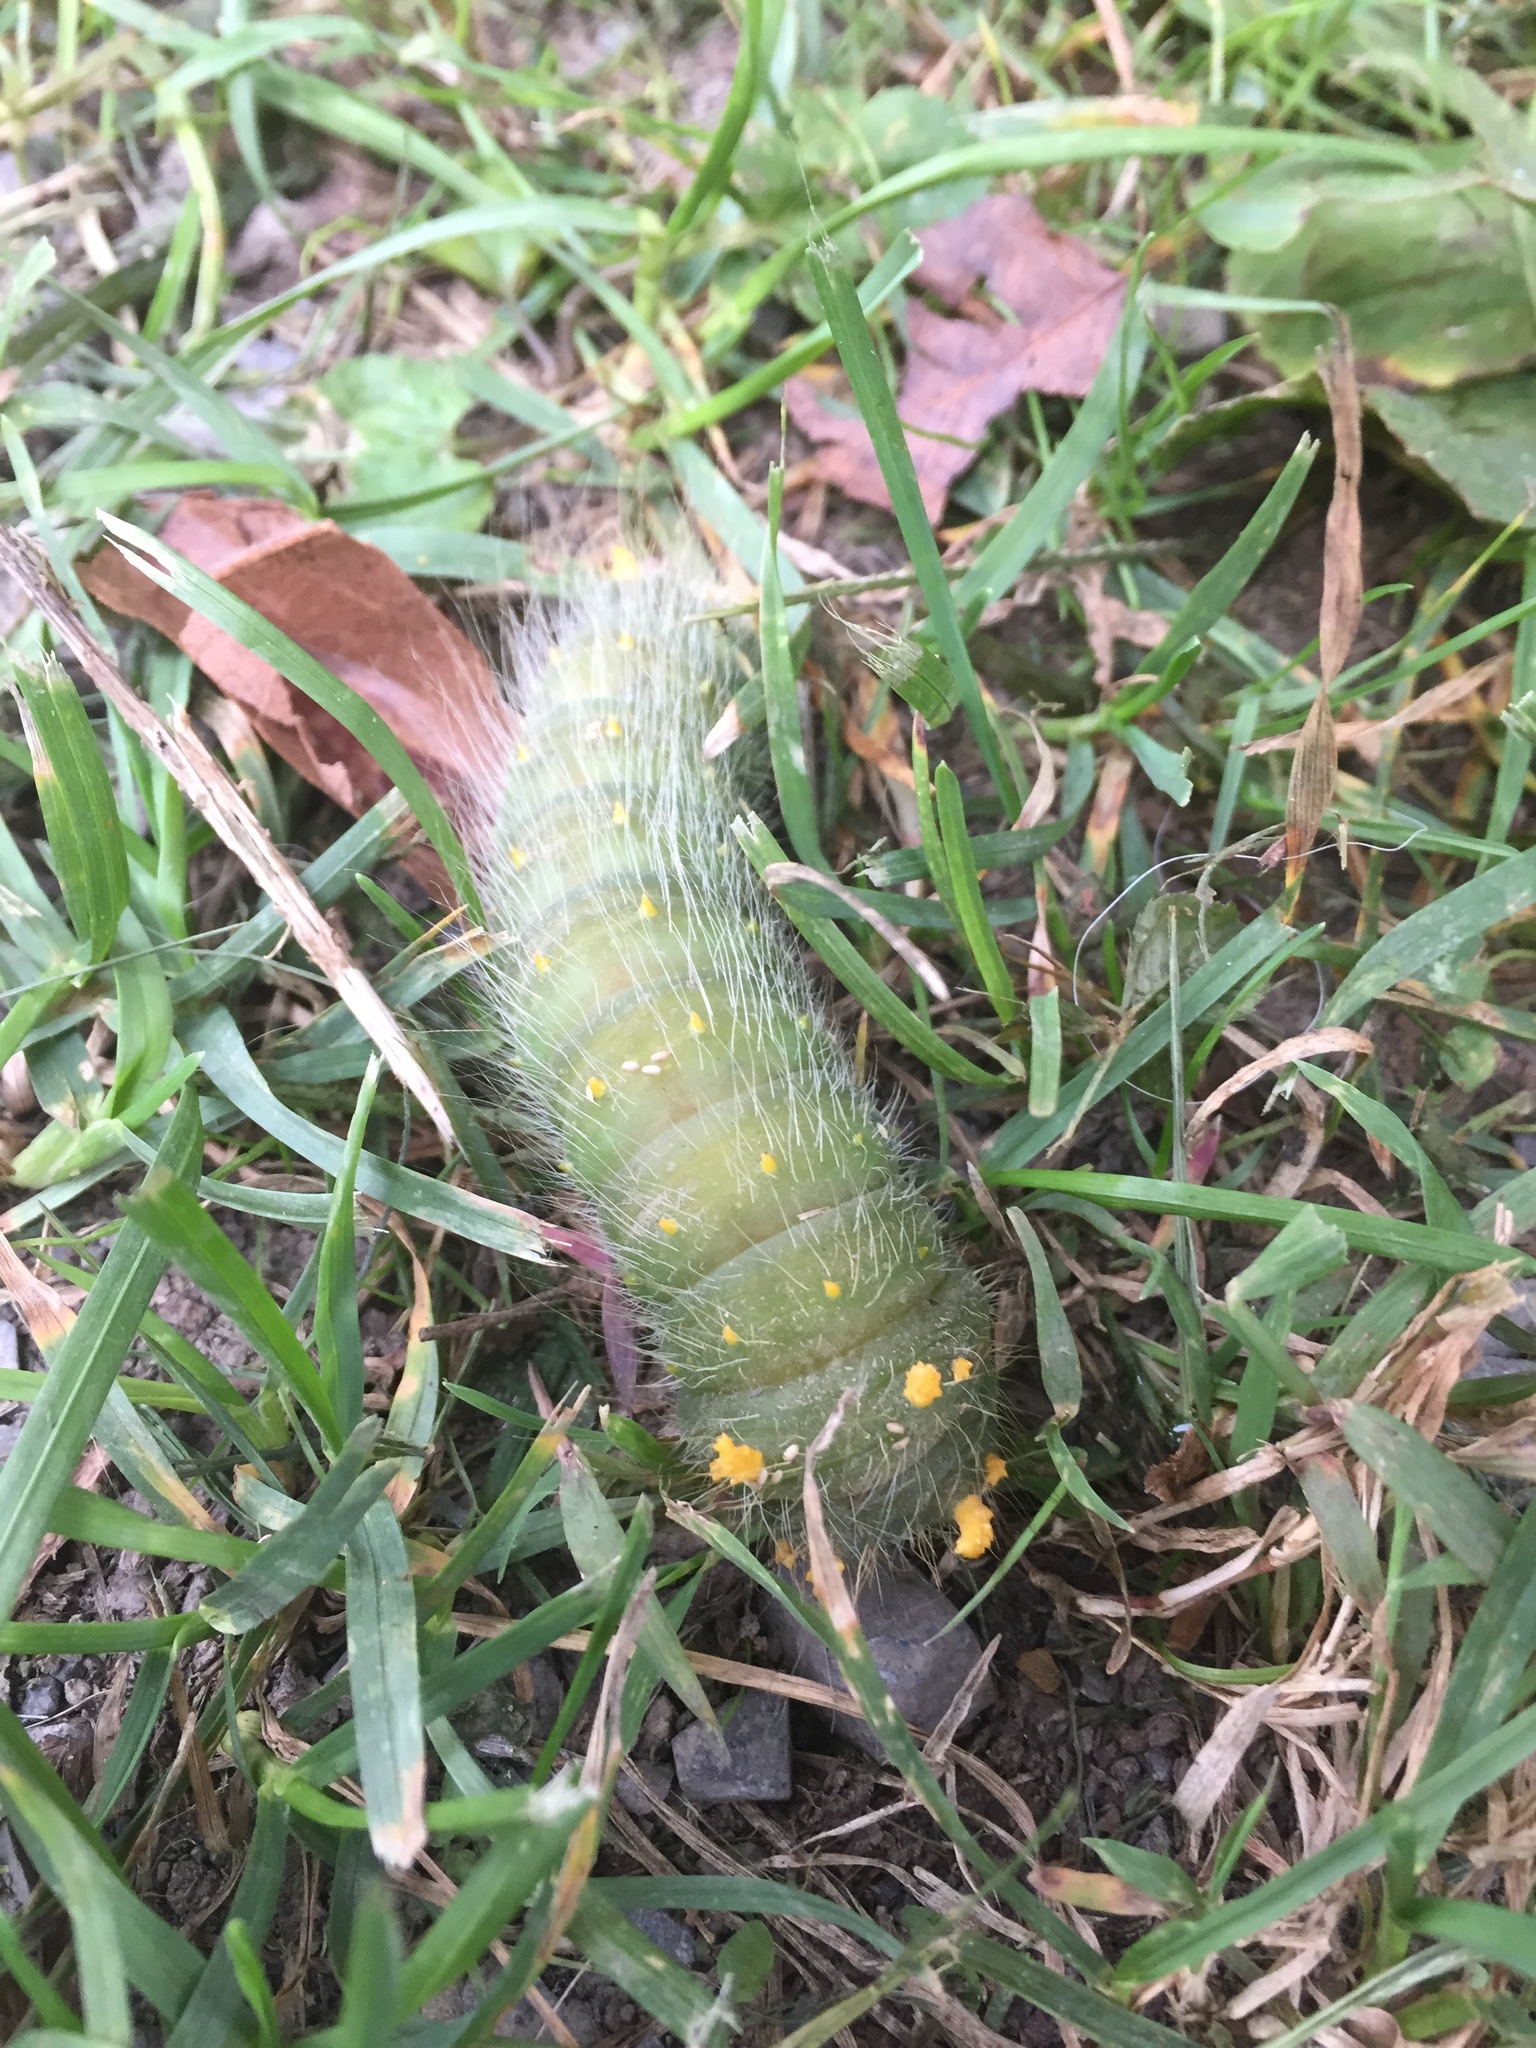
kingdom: Animalia
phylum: Arthropoda
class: Insecta
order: Lepidoptera
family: Saturniidae
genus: Eacles
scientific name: Eacles imperialis
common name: Imperial moth
